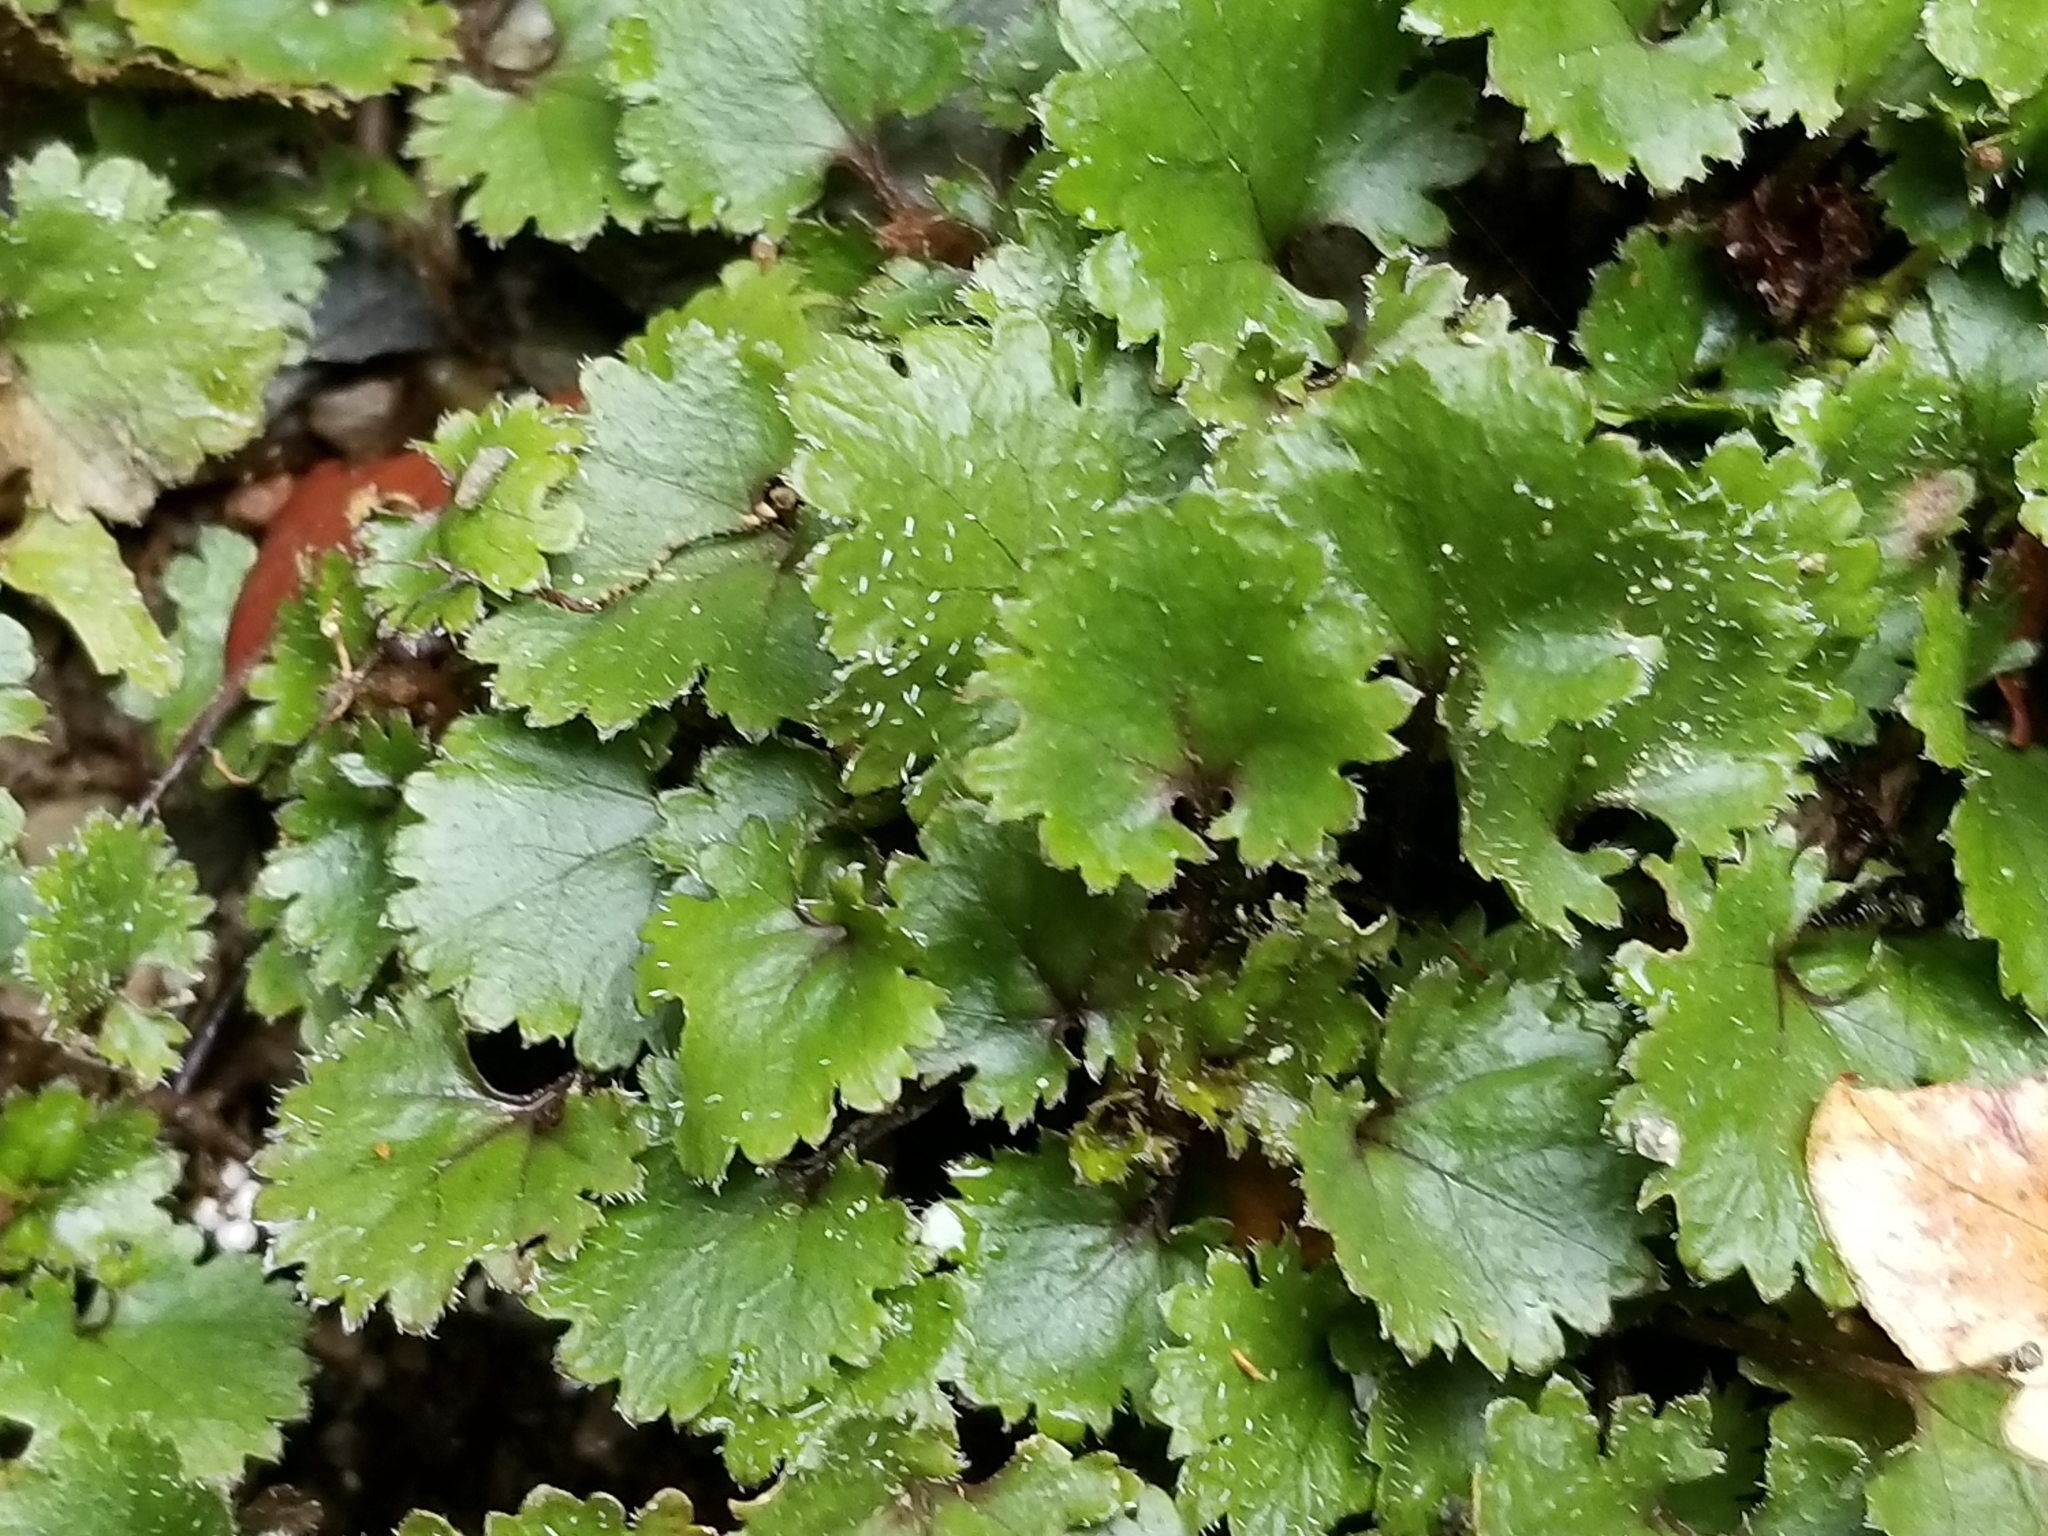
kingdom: Plantae
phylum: Tracheophyta
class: Magnoliopsida
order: Gunnerales
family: Gunneraceae
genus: Gunnera
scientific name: Gunnera monoica
